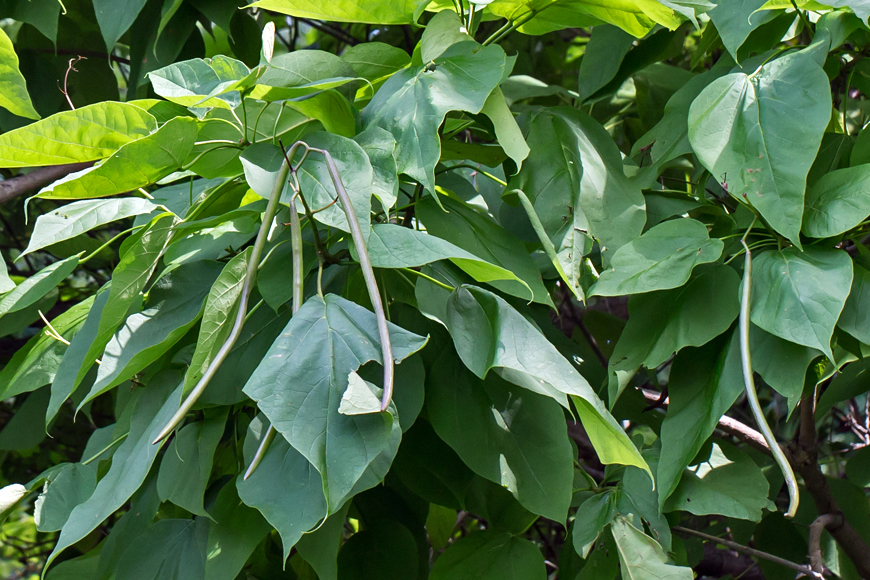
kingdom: Plantae
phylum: Tracheophyta
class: Magnoliopsida
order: Lamiales
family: Bignoniaceae
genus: Catalpa
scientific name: Catalpa speciosa
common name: Northern catalpa
